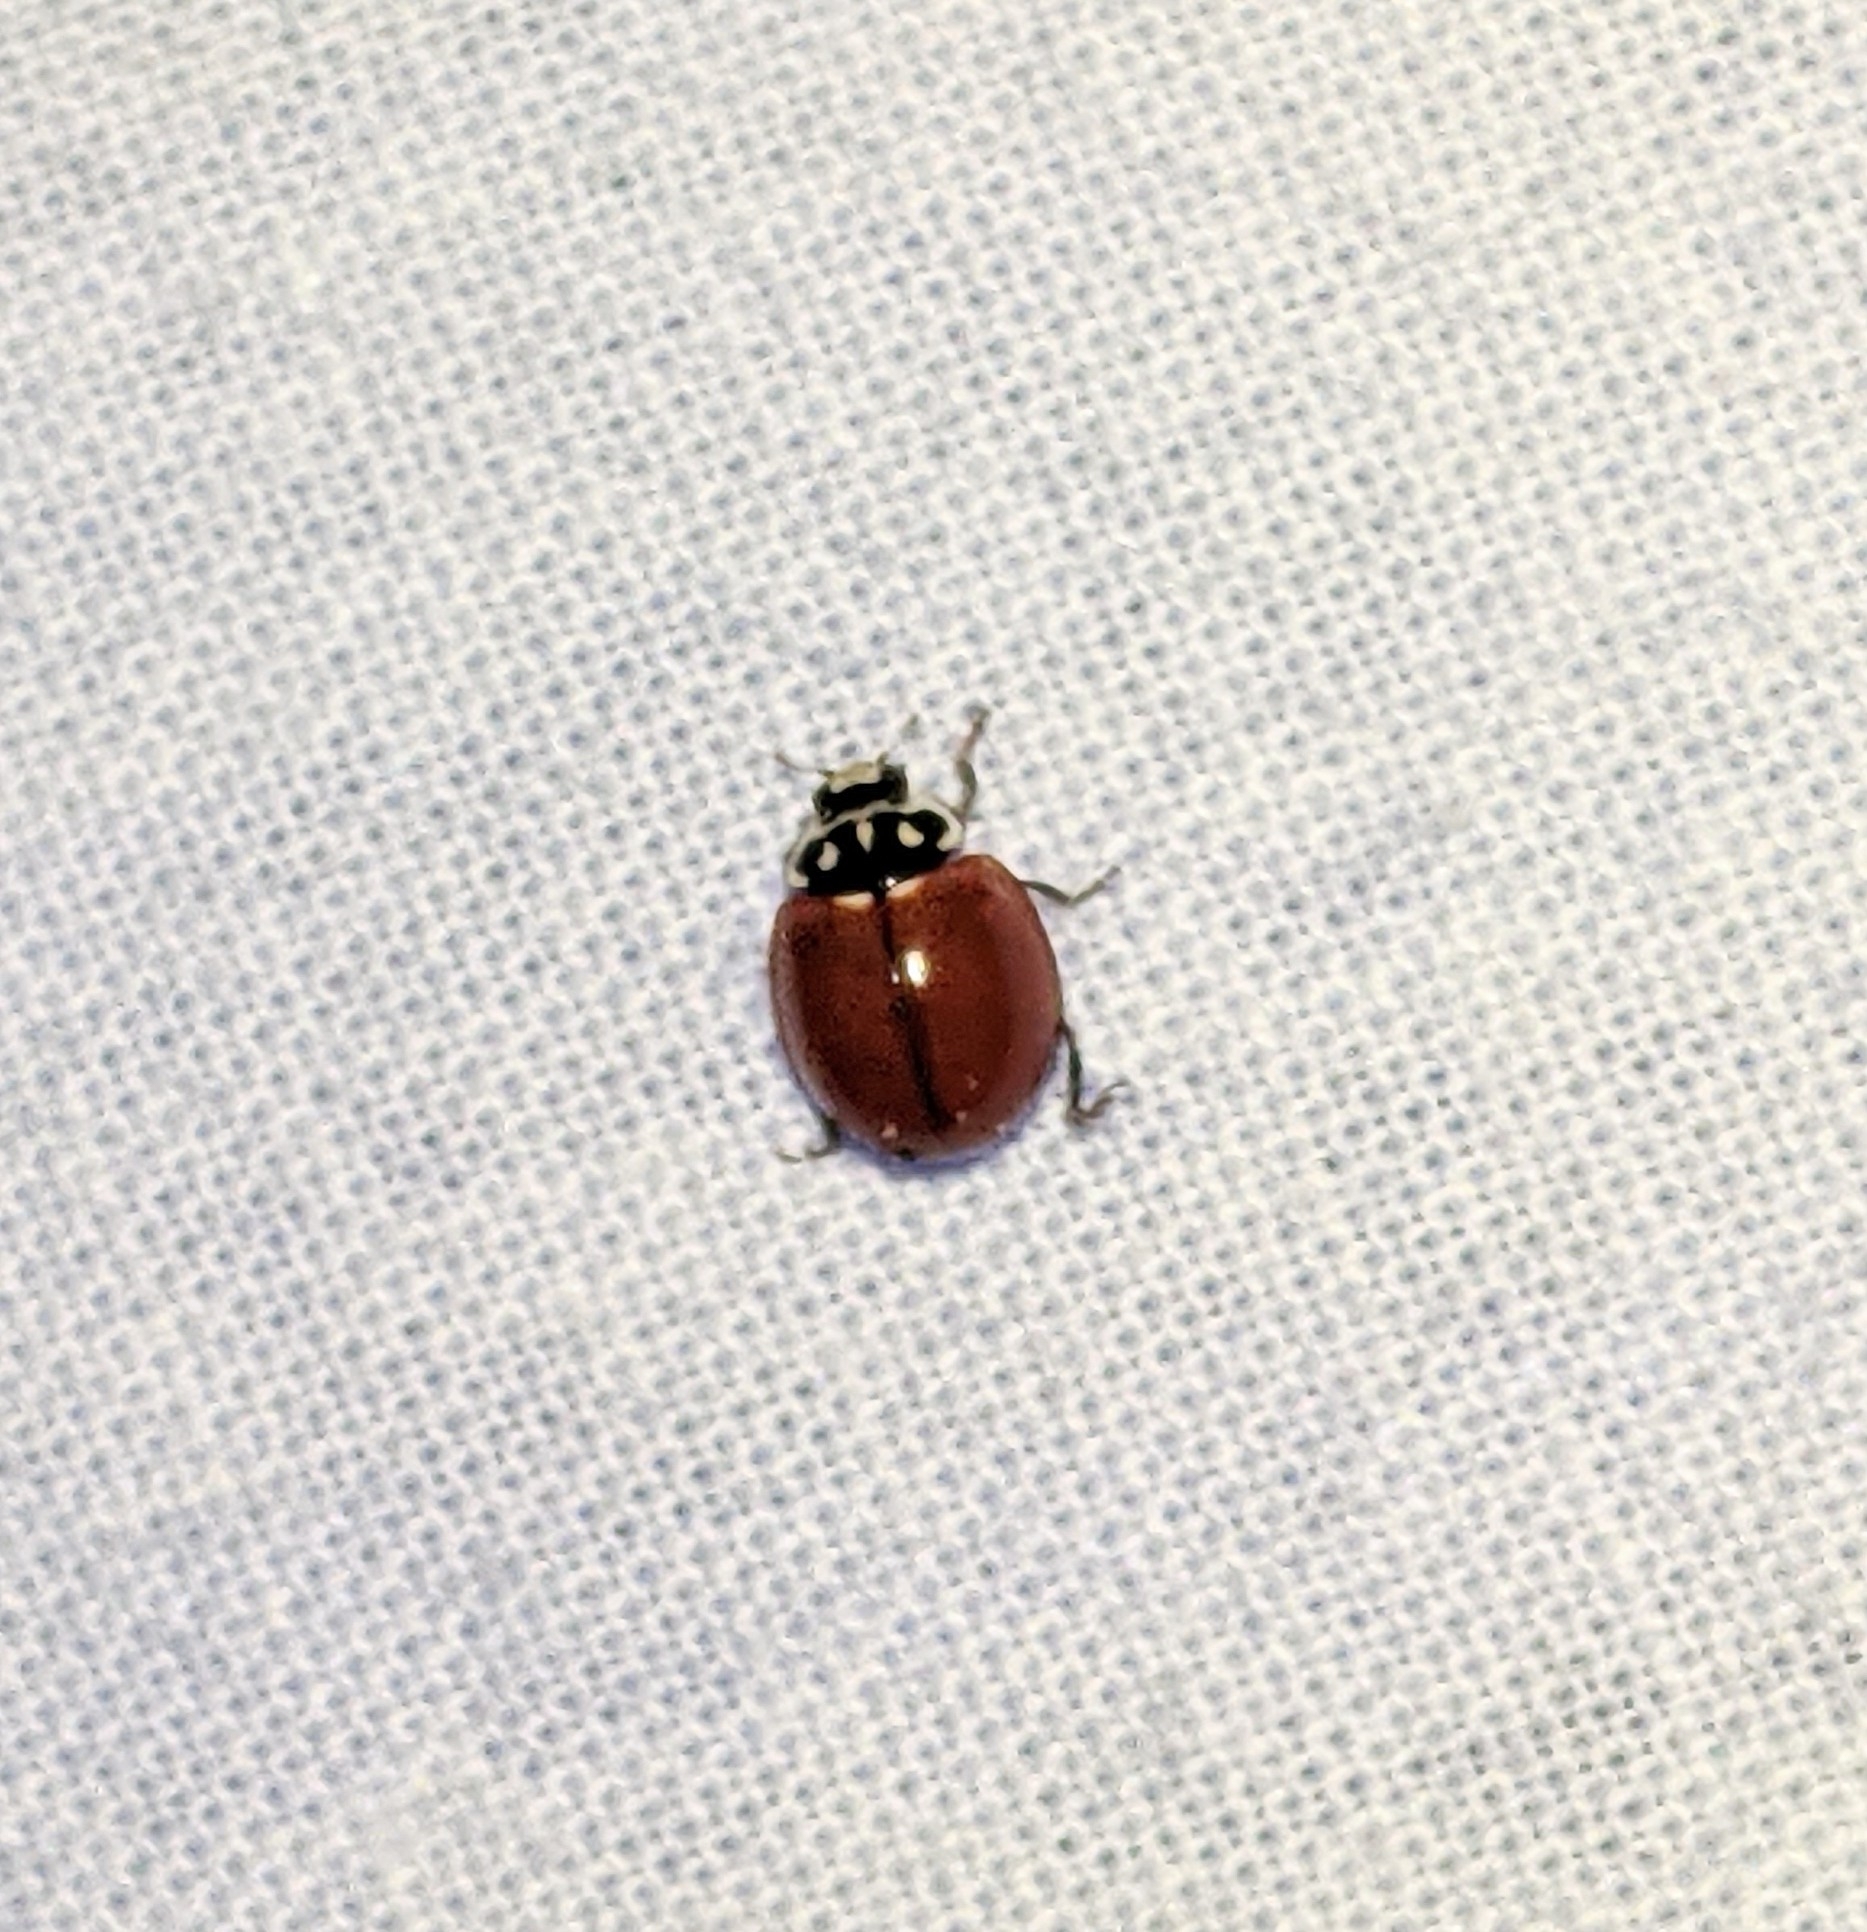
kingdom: Animalia
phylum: Arthropoda
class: Insecta
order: Coleoptera
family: Coccinellidae
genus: Cycloneda
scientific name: Cycloneda polita
